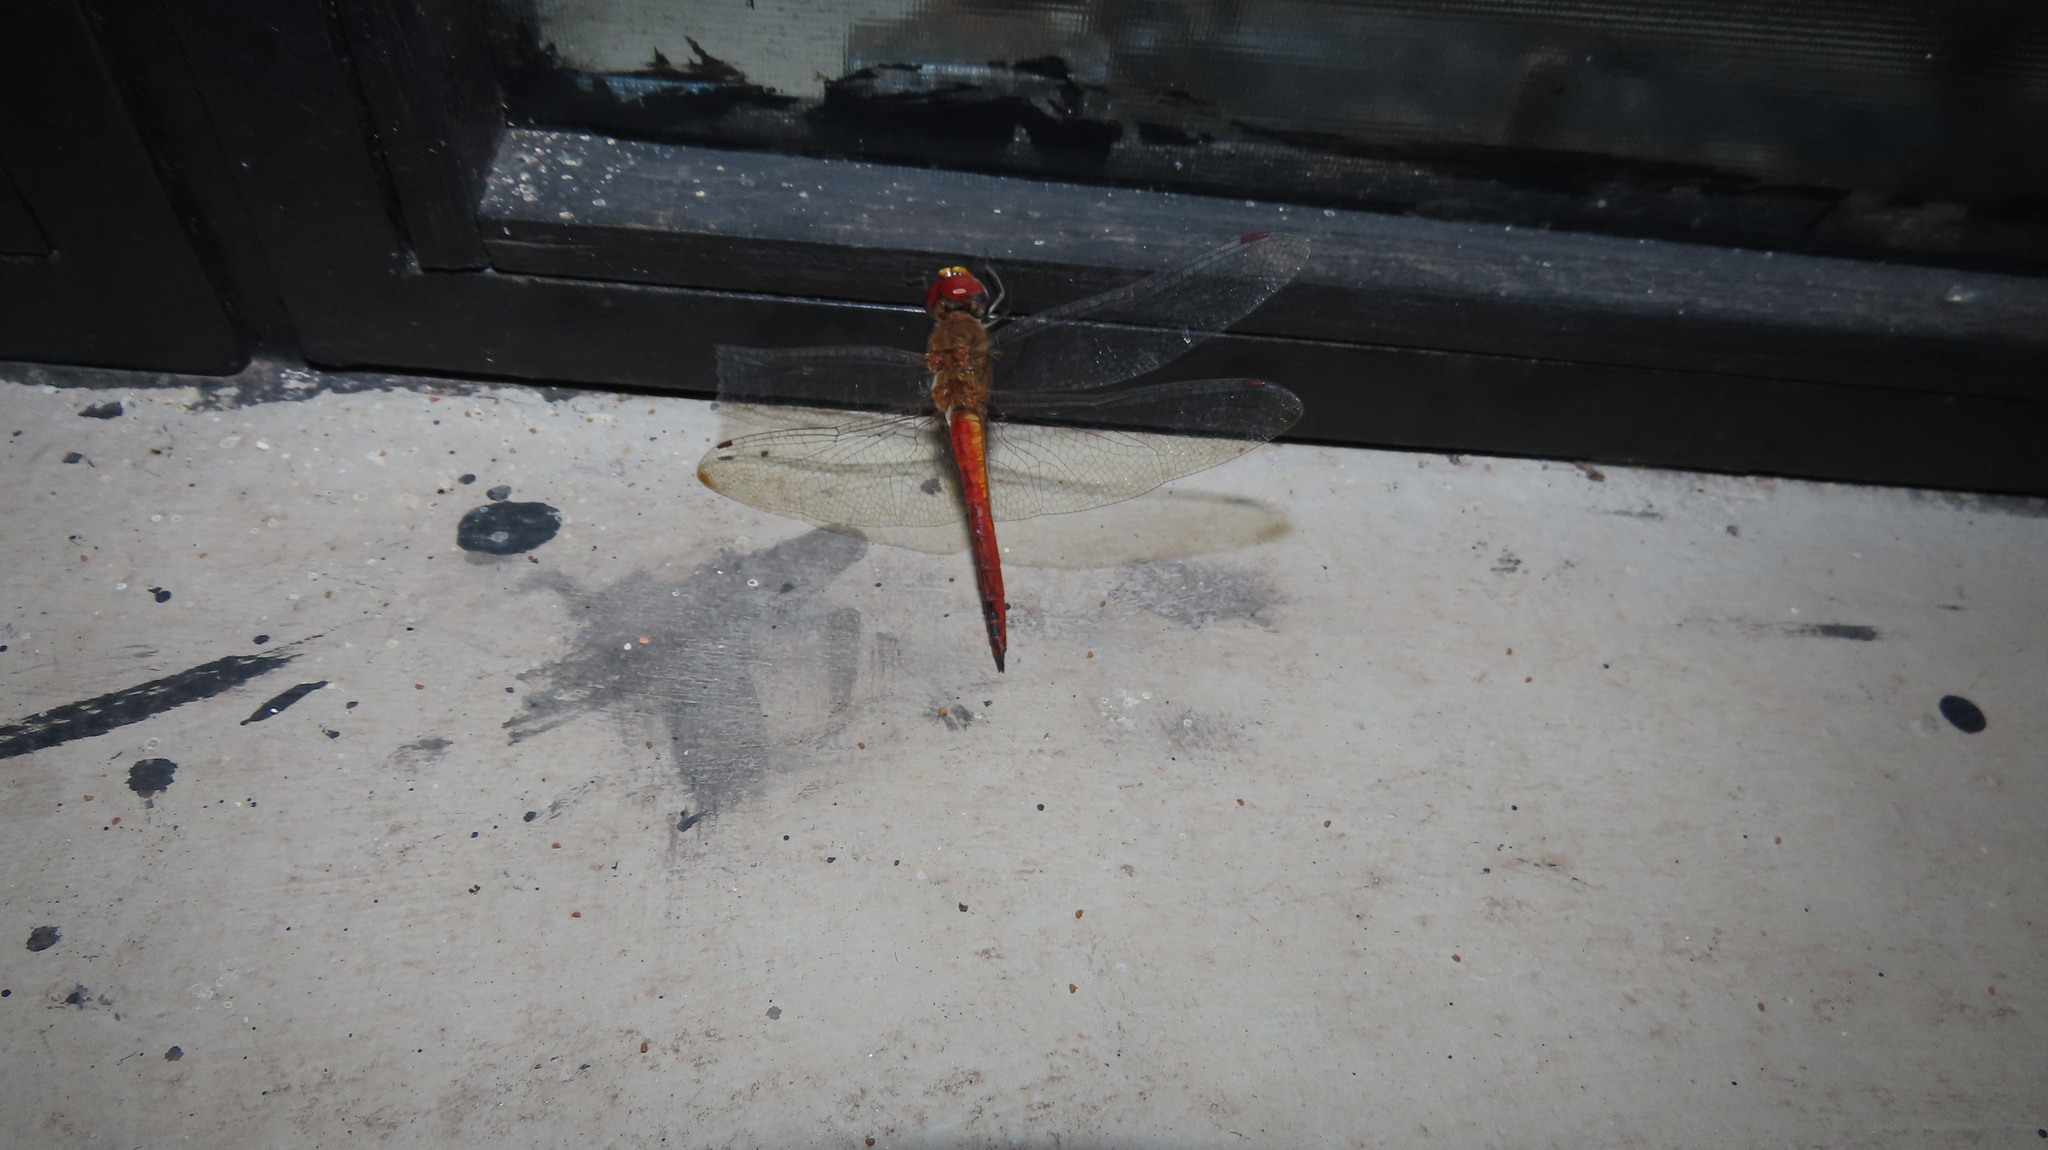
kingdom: Animalia
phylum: Arthropoda
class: Insecta
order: Odonata
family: Libellulidae
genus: Pantala
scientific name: Pantala flavescens
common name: Wandering glider
